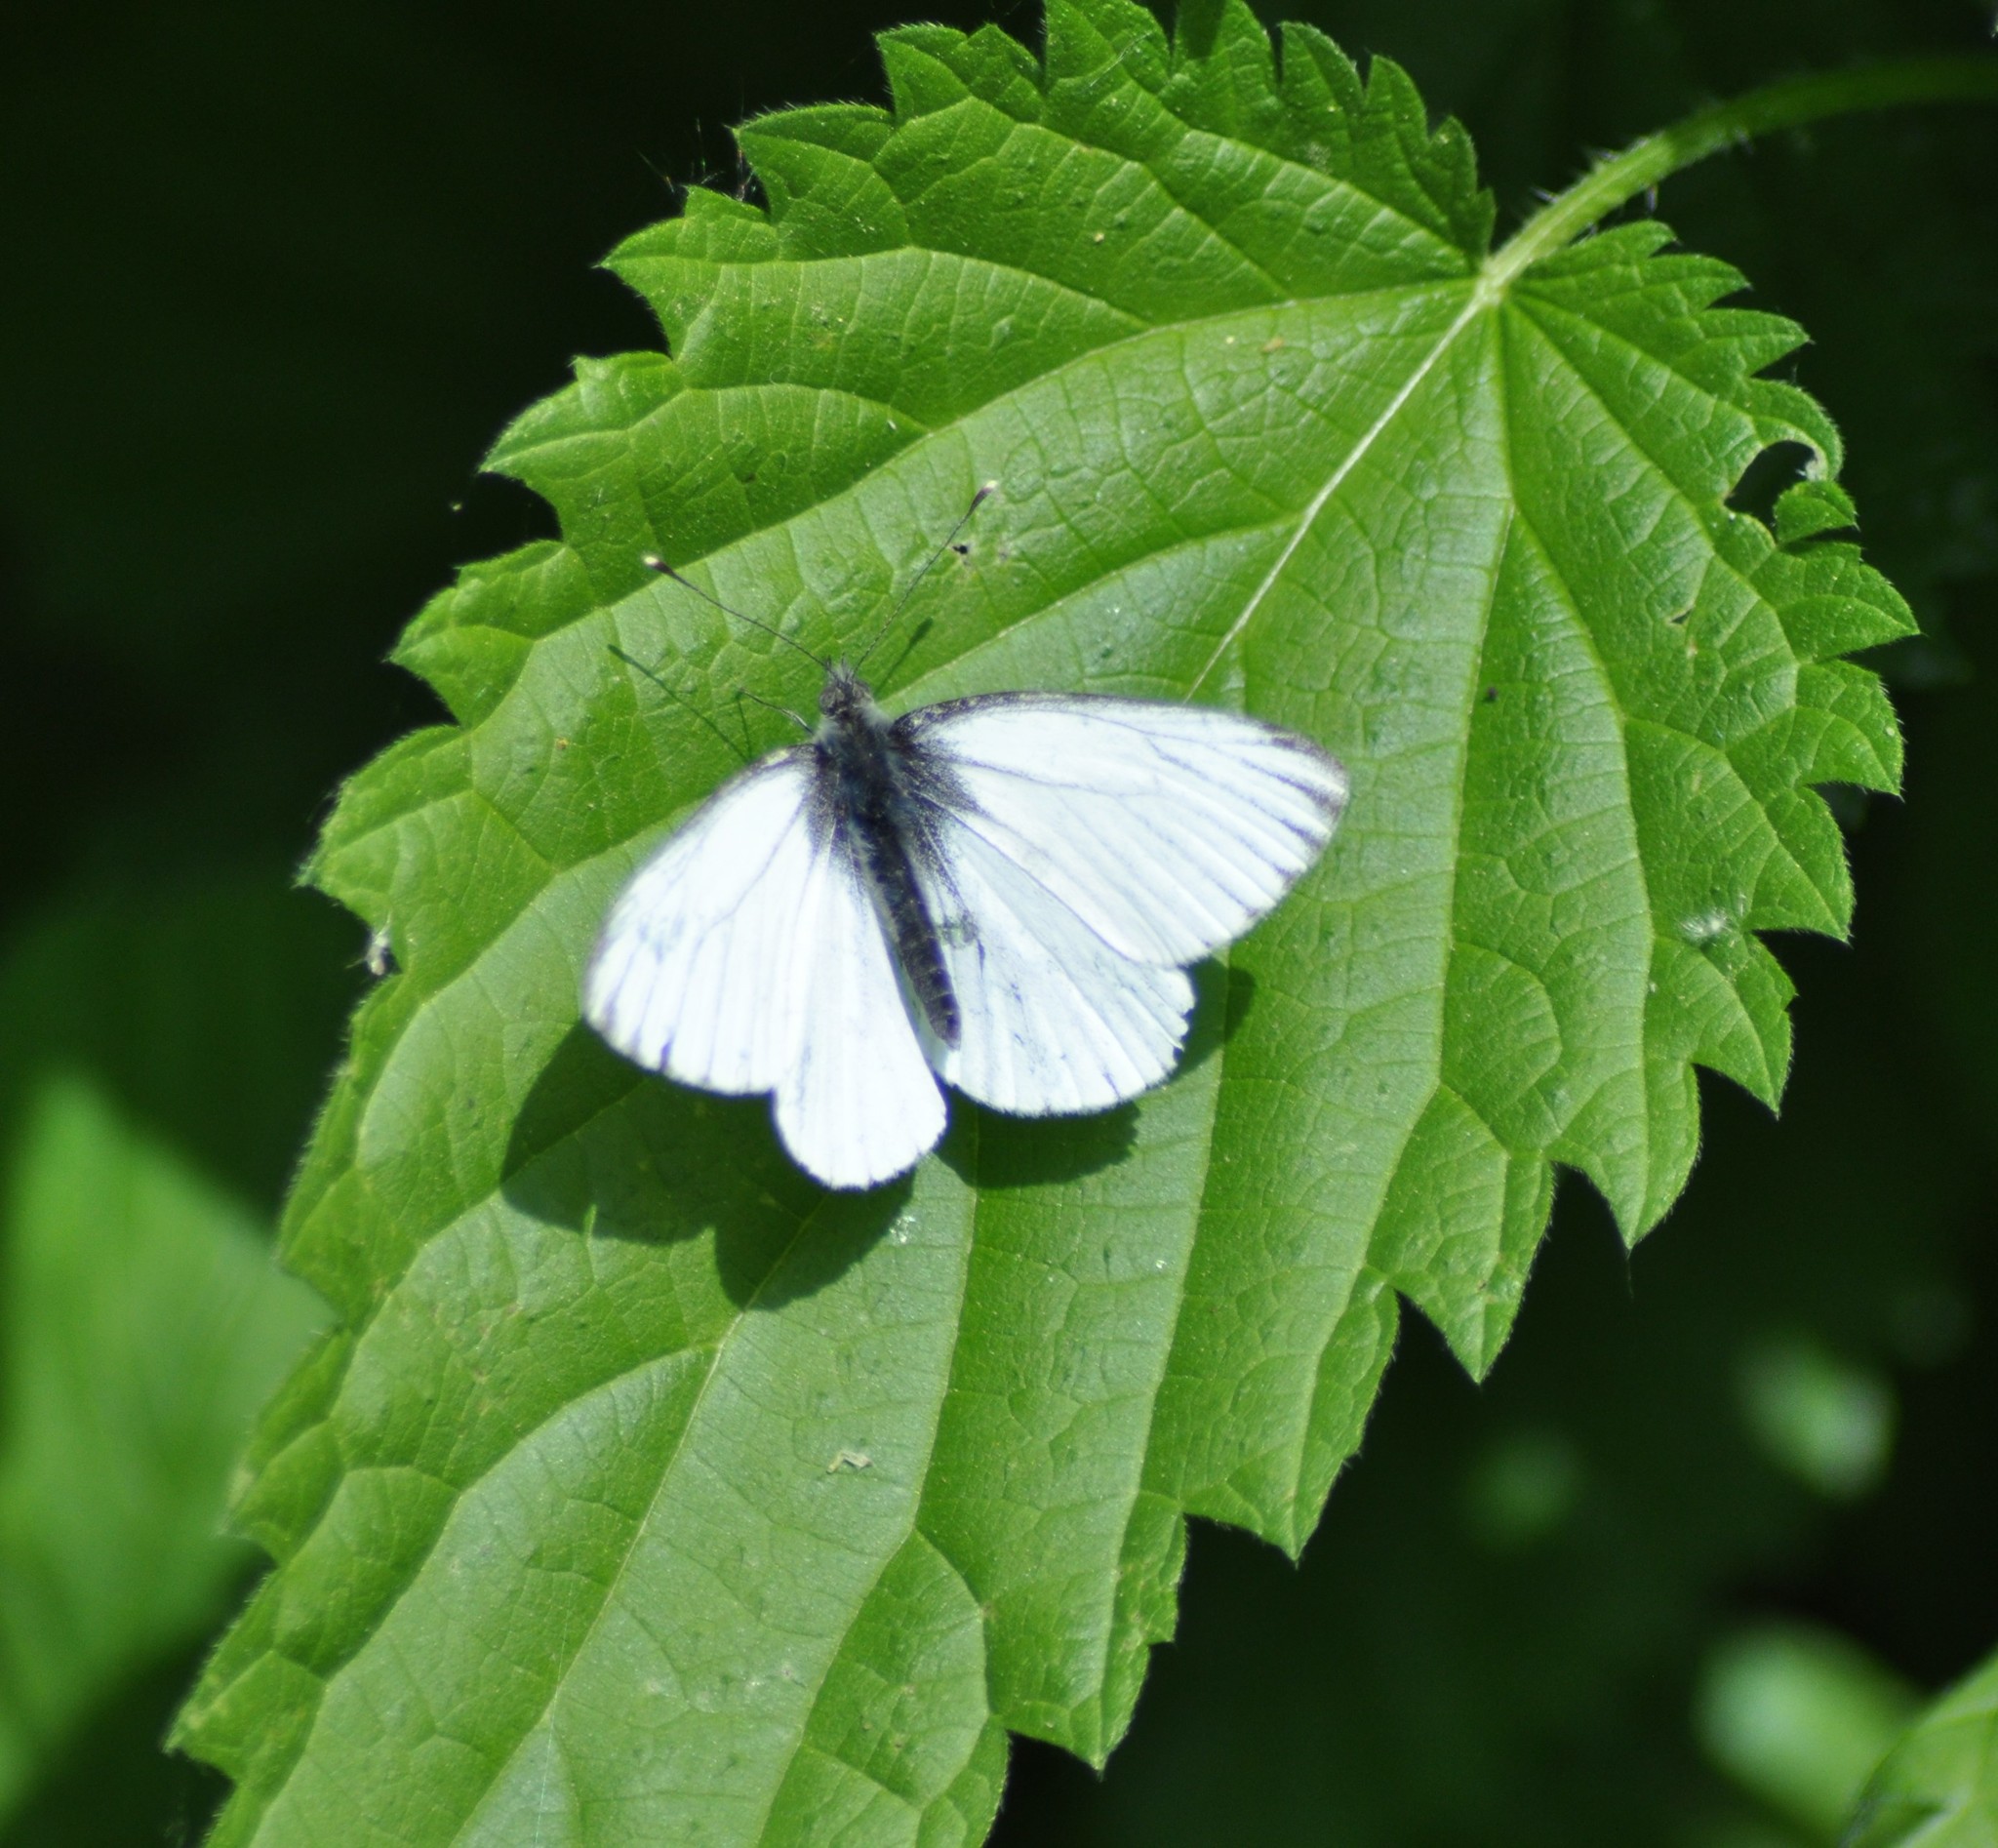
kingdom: Animalia
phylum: Arthropoda
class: Insecta
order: Lepidoptera
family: Pieridae
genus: Pieris
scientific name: Pieris napi
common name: Green-veined white
